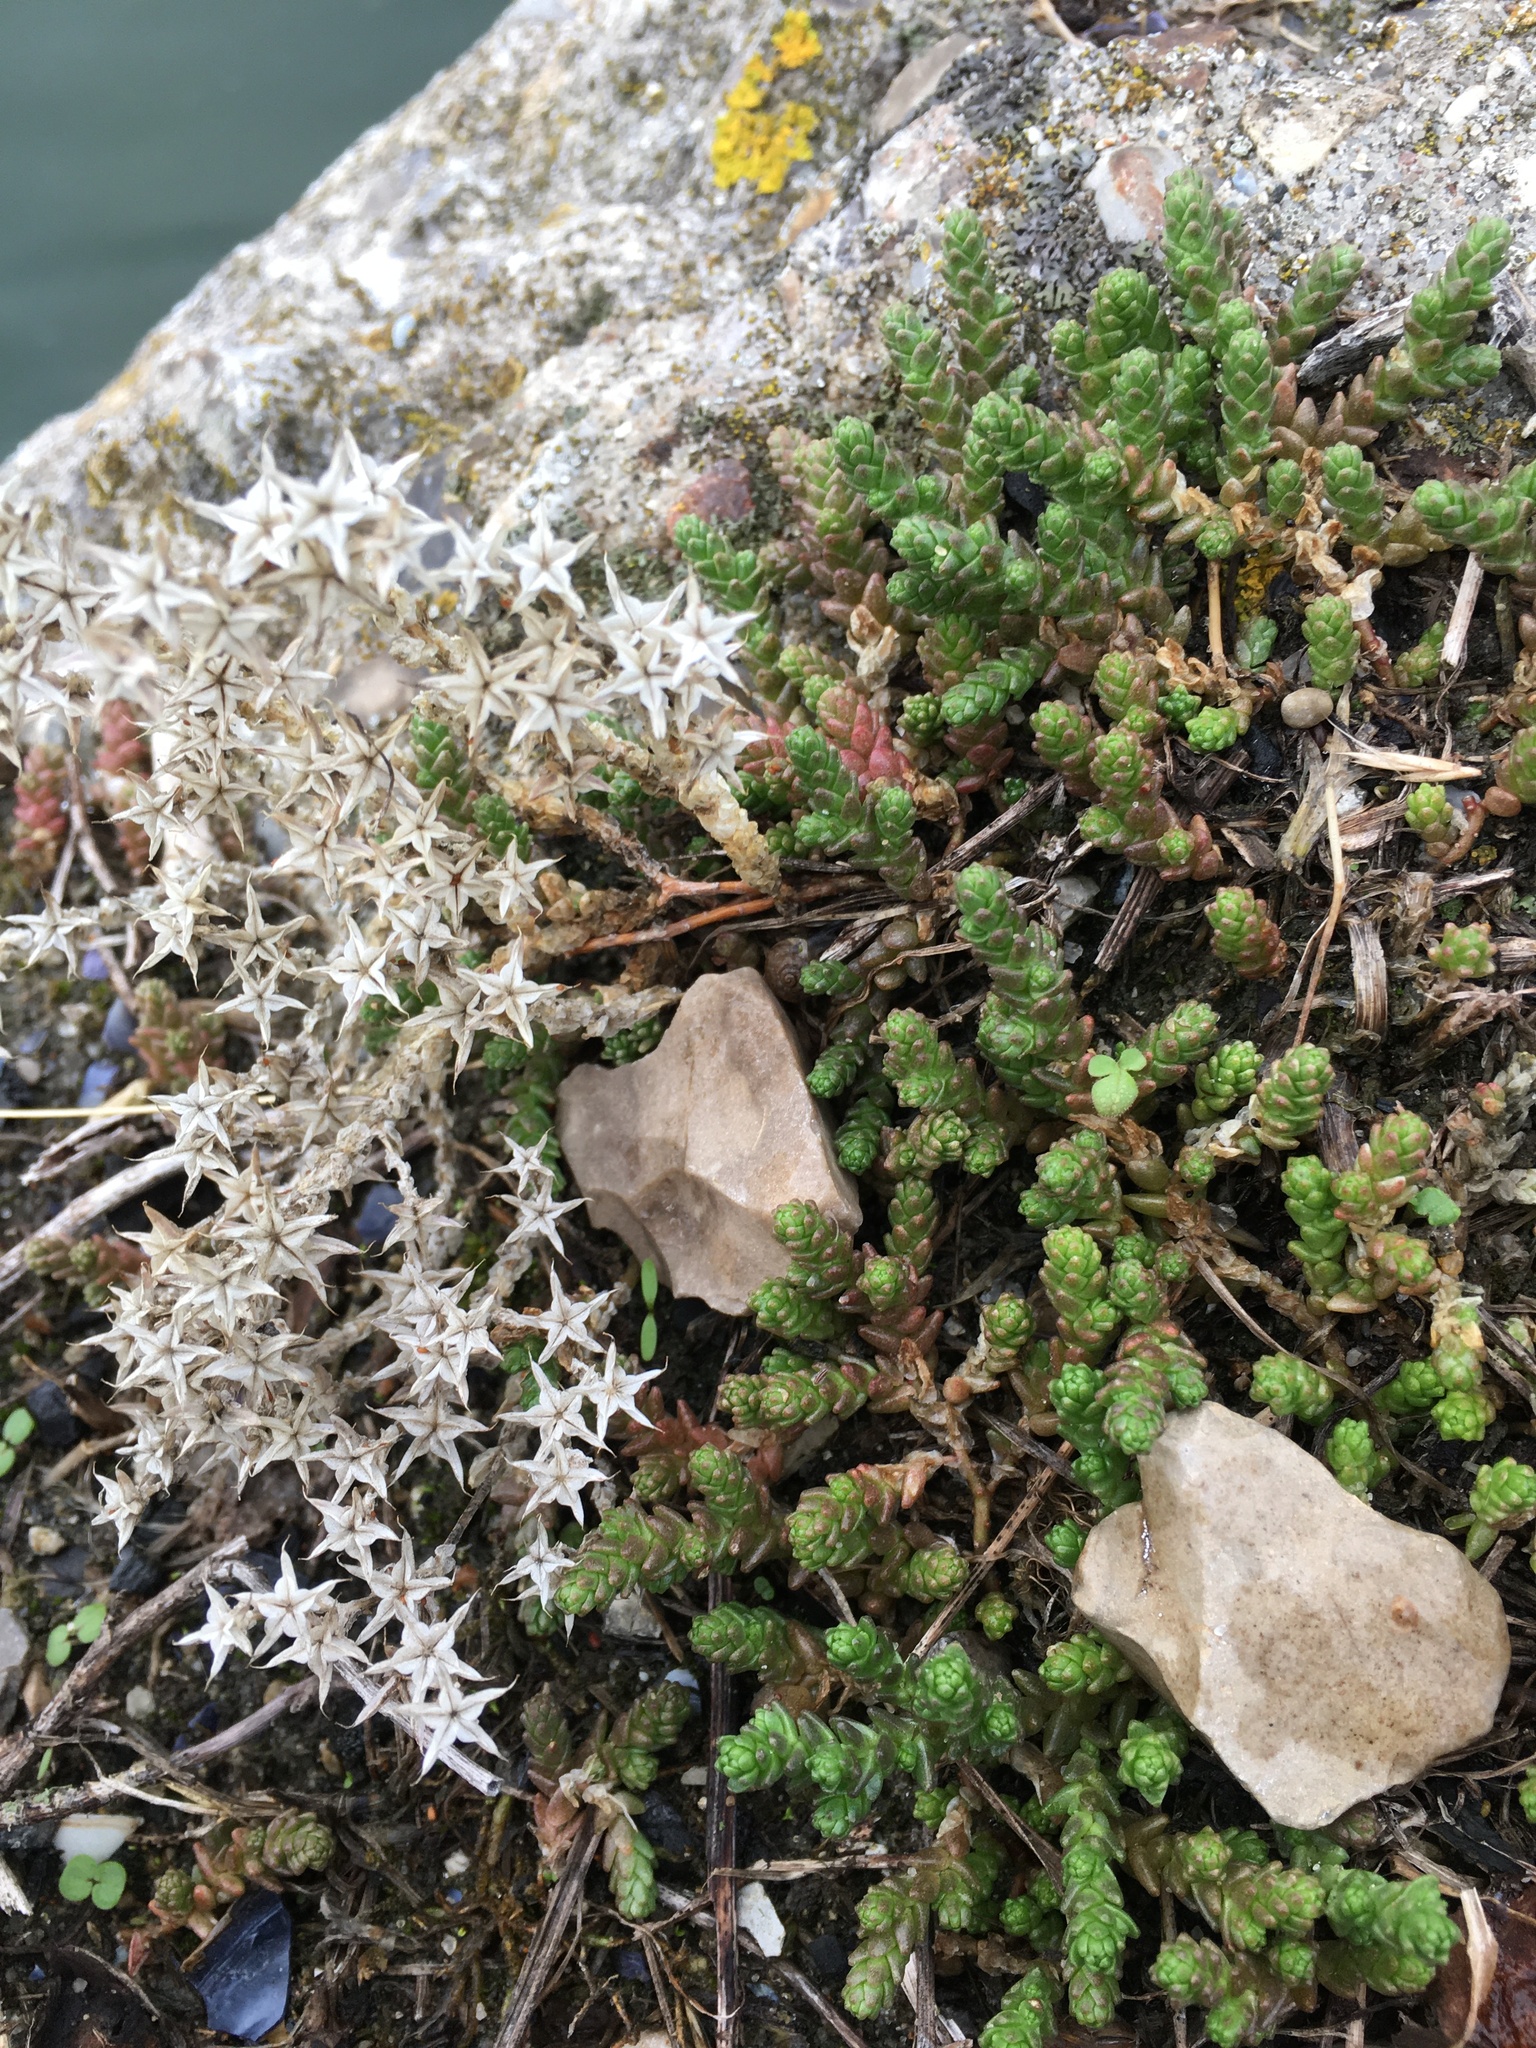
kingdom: Plantae
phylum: Tracheophyta
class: Magnoliopsida
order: Saxifragales
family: Crassulaceae
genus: Sedum
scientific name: Sedum acre
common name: Biting stonecrop
